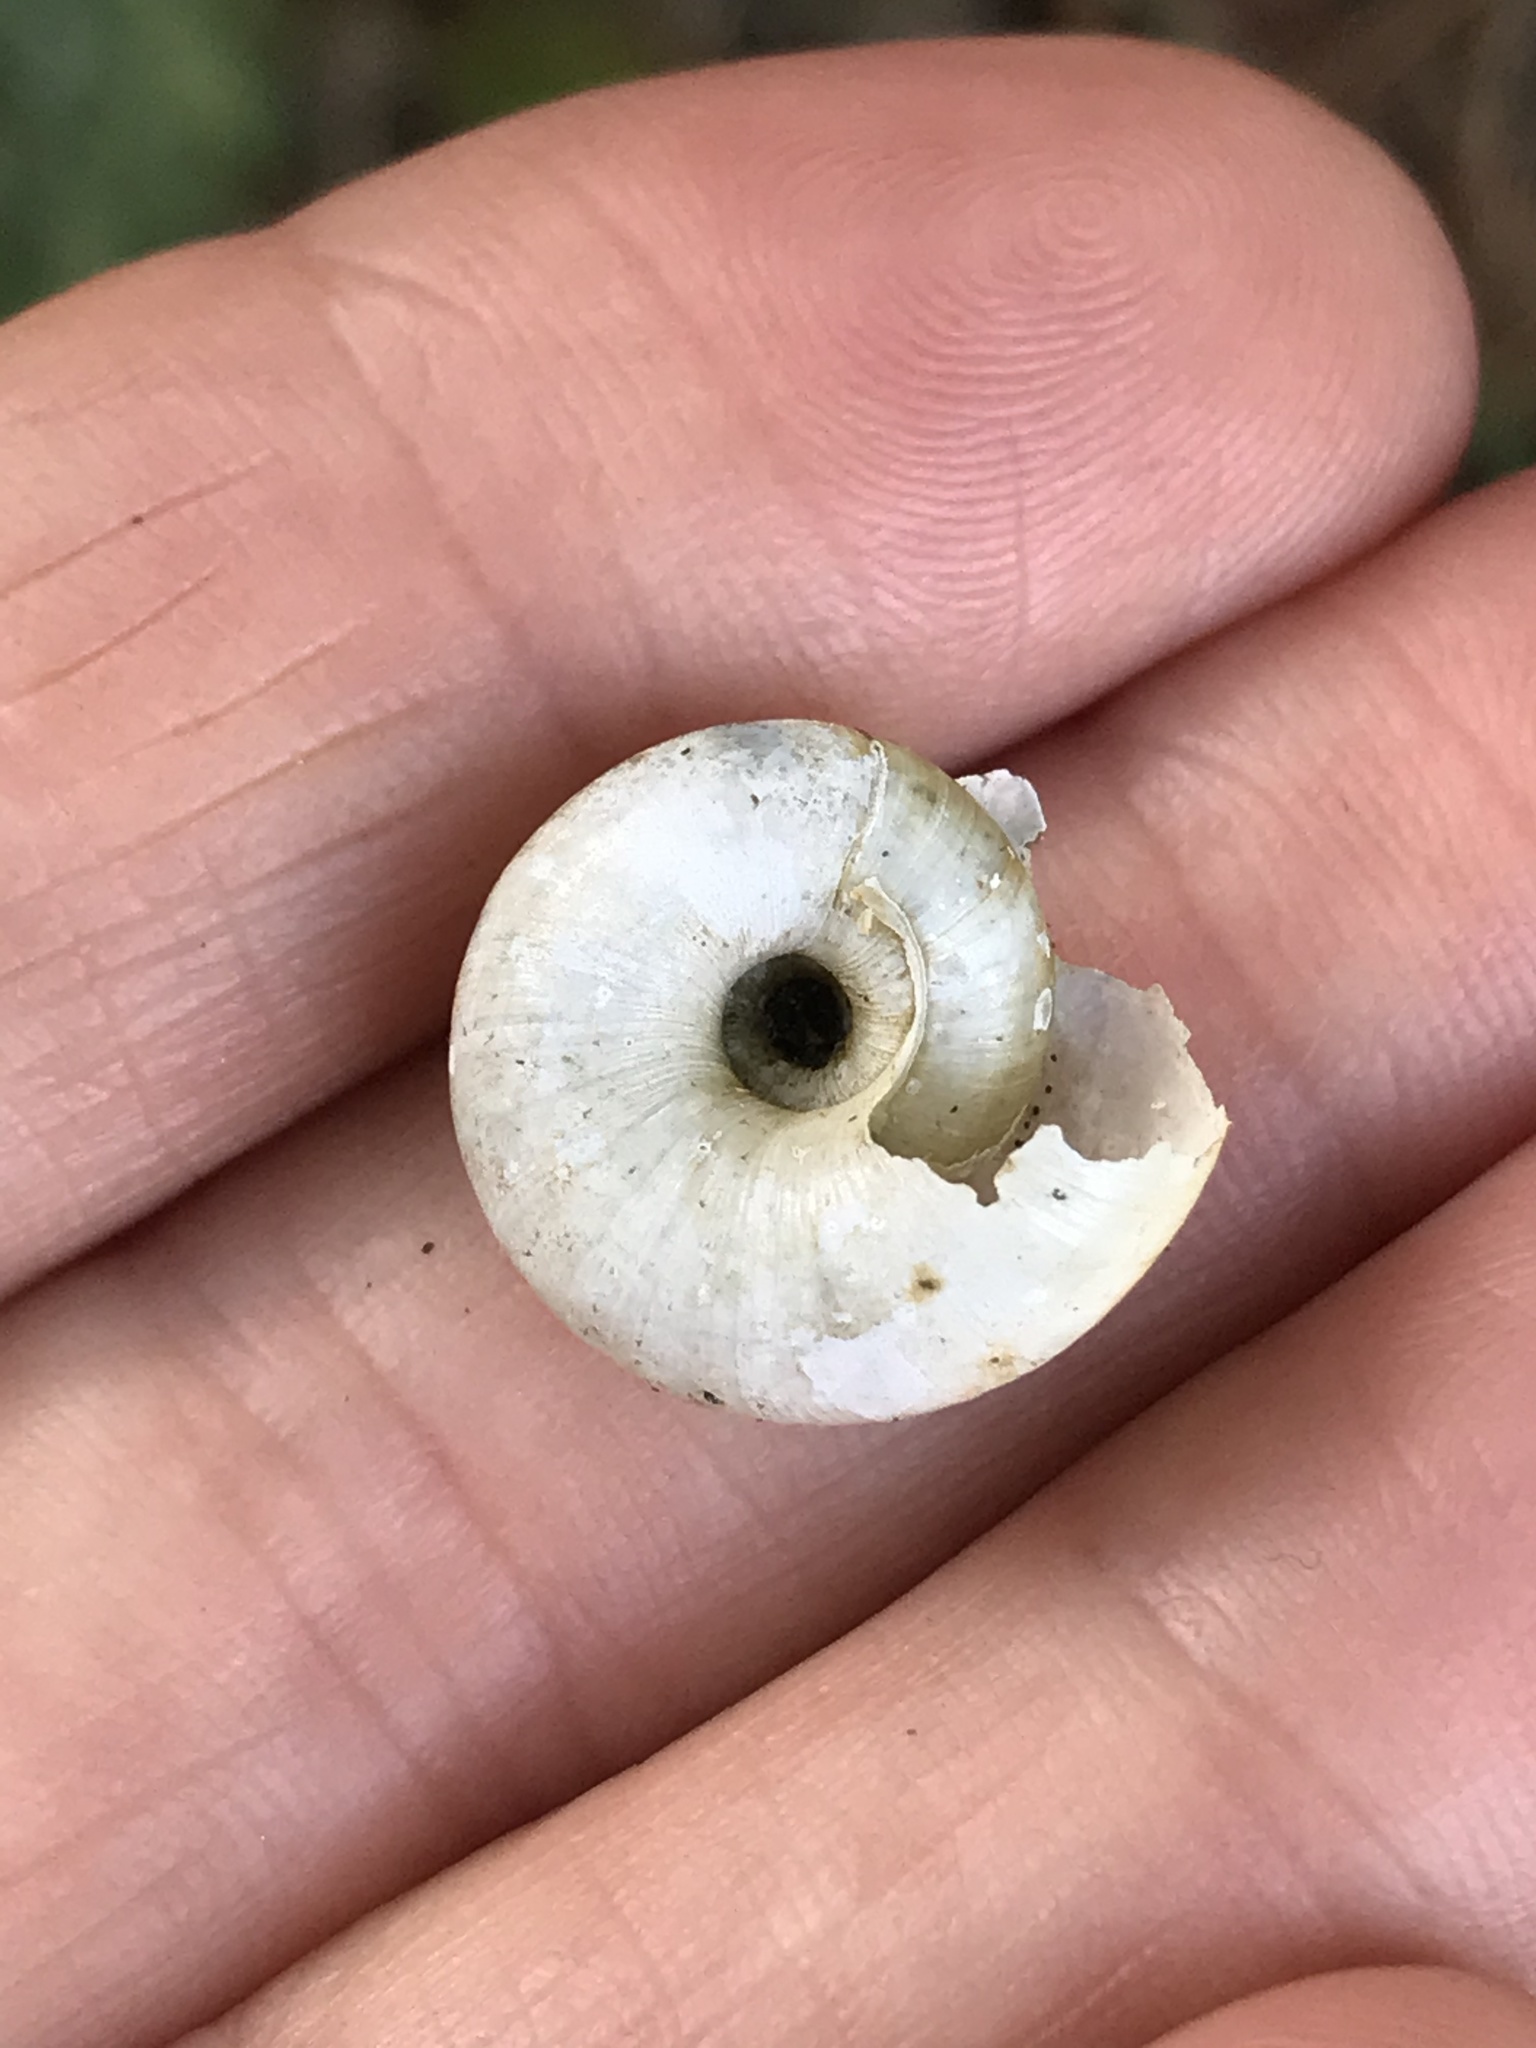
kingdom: Animalia
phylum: Mollusca
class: Gastropoda
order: Stylommatophora
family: Haplotrematidae
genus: Haplotrema
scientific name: Haplotrema minimum
